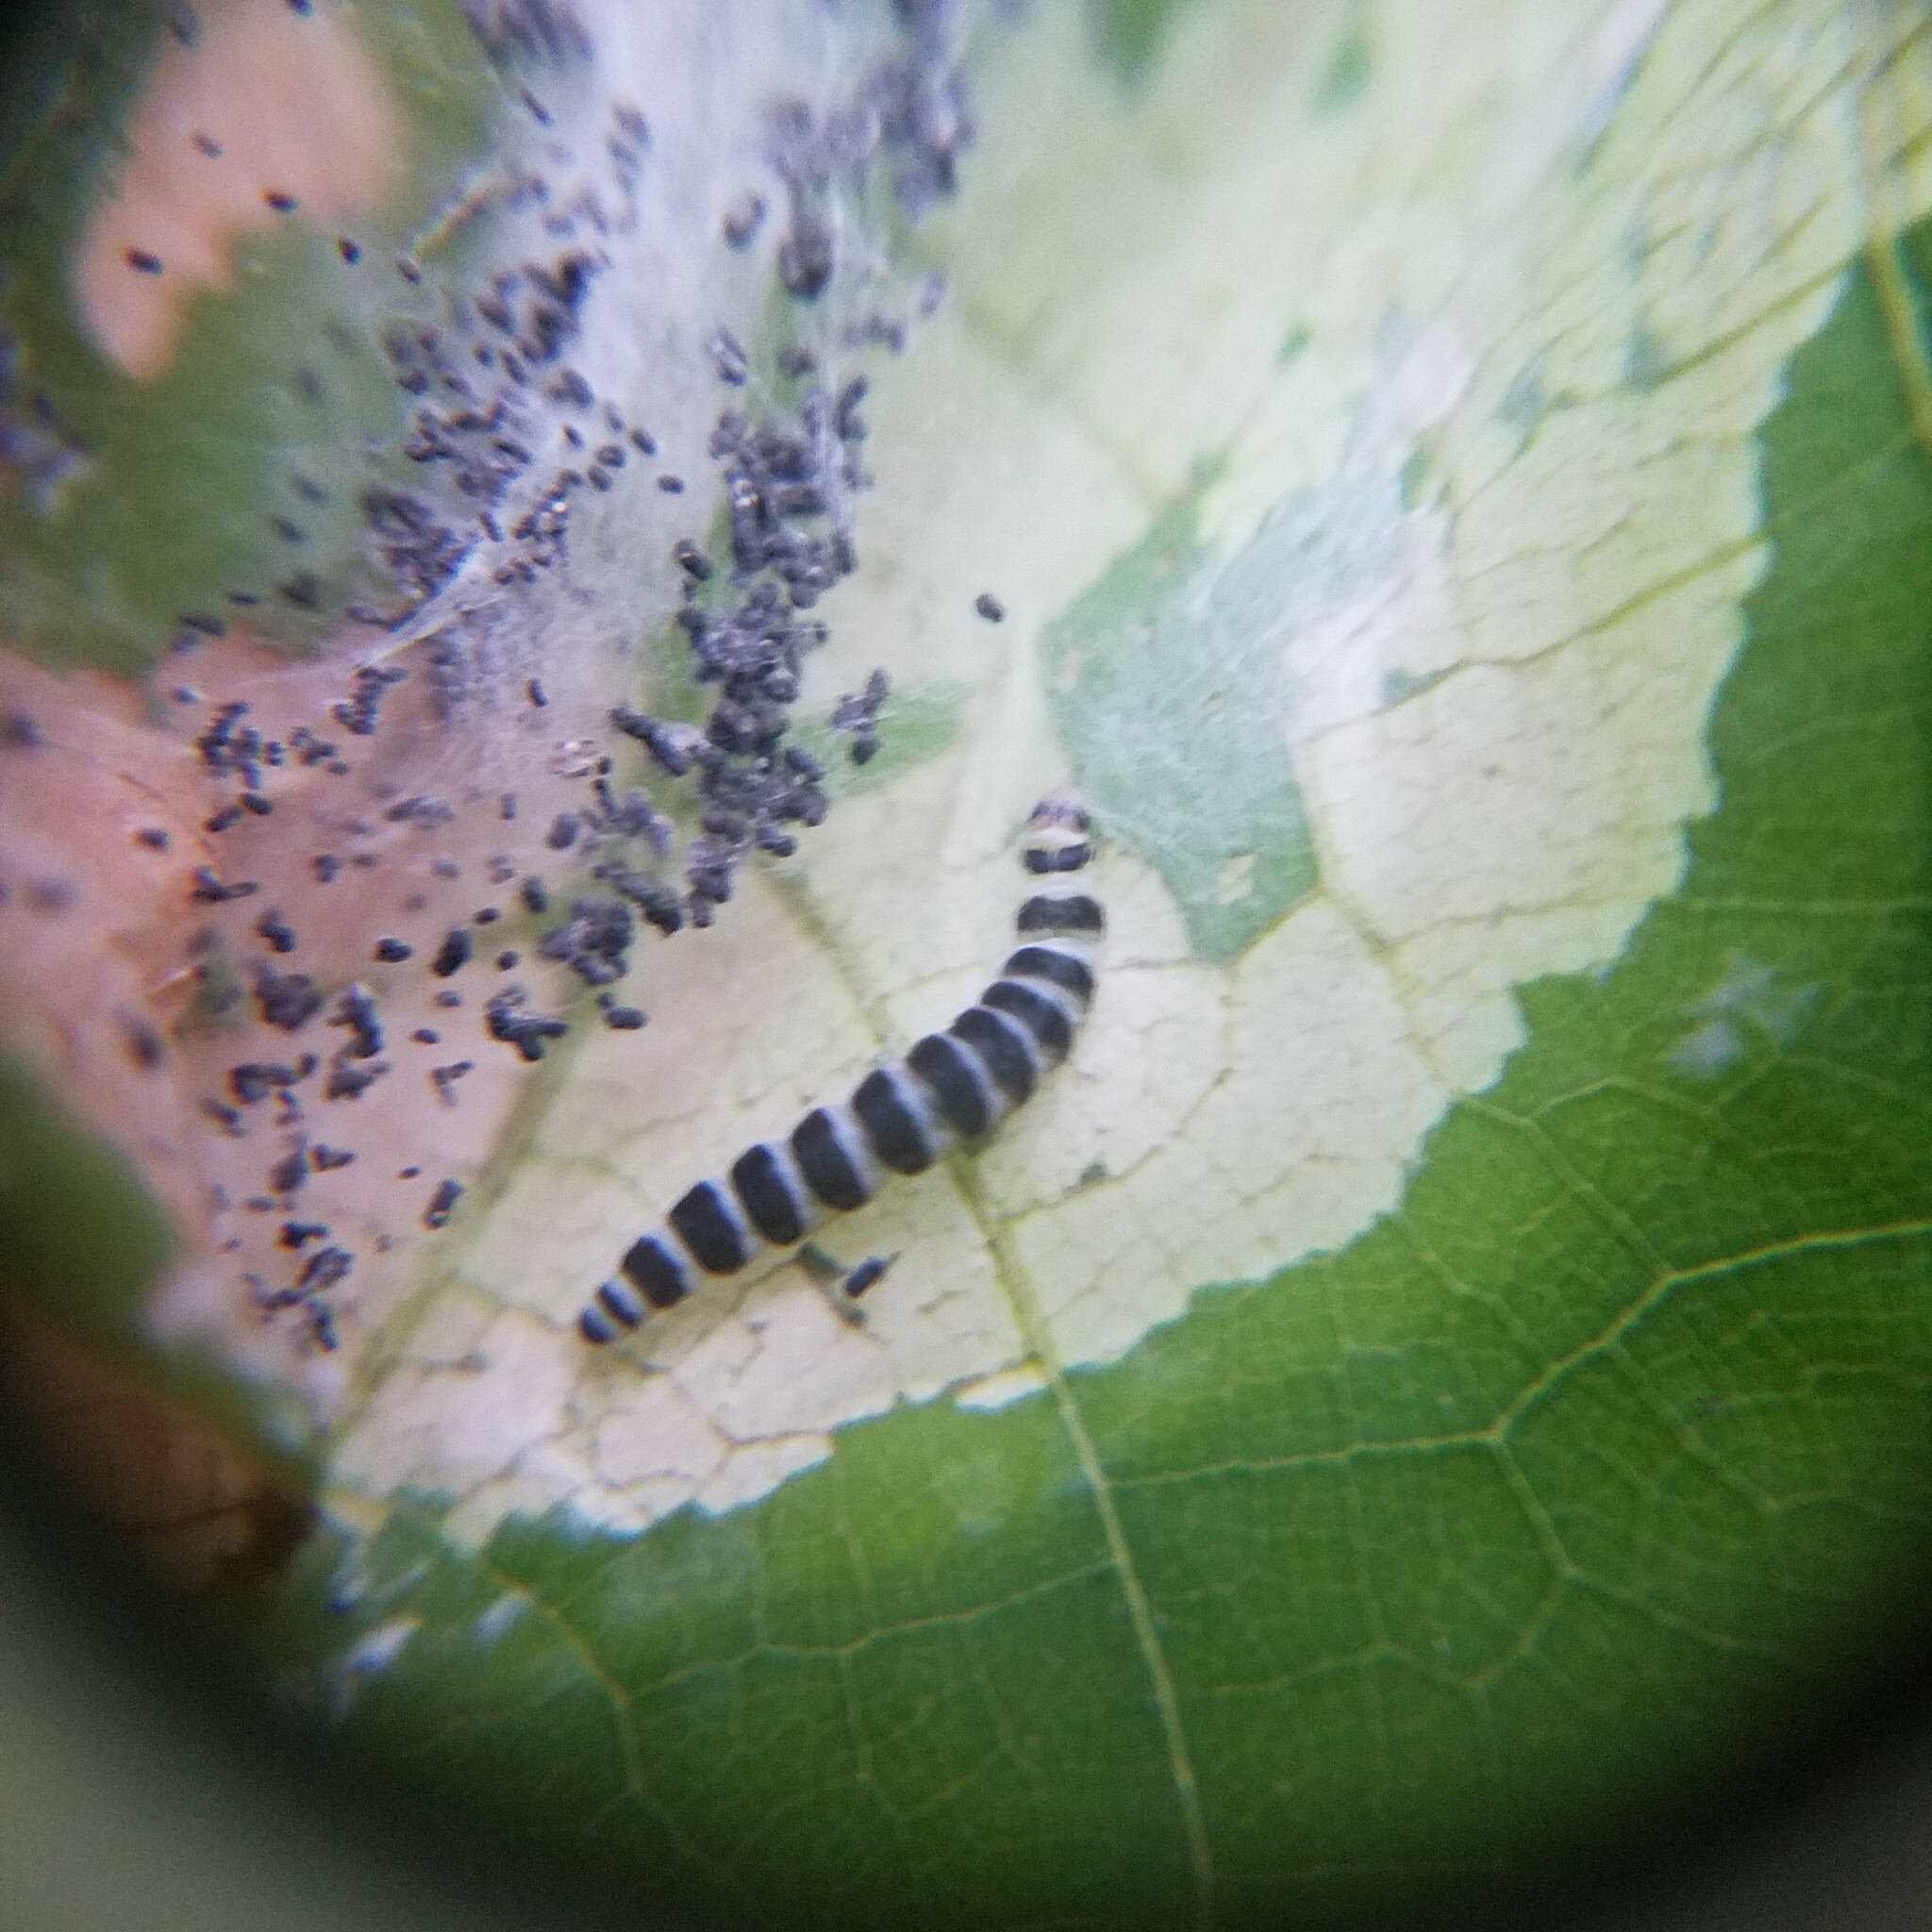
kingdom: Animalia
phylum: Arthropoda
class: Insecta
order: Lepidoptera
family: Gelechiidae
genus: Fascista
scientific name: Fascista cercerisella
